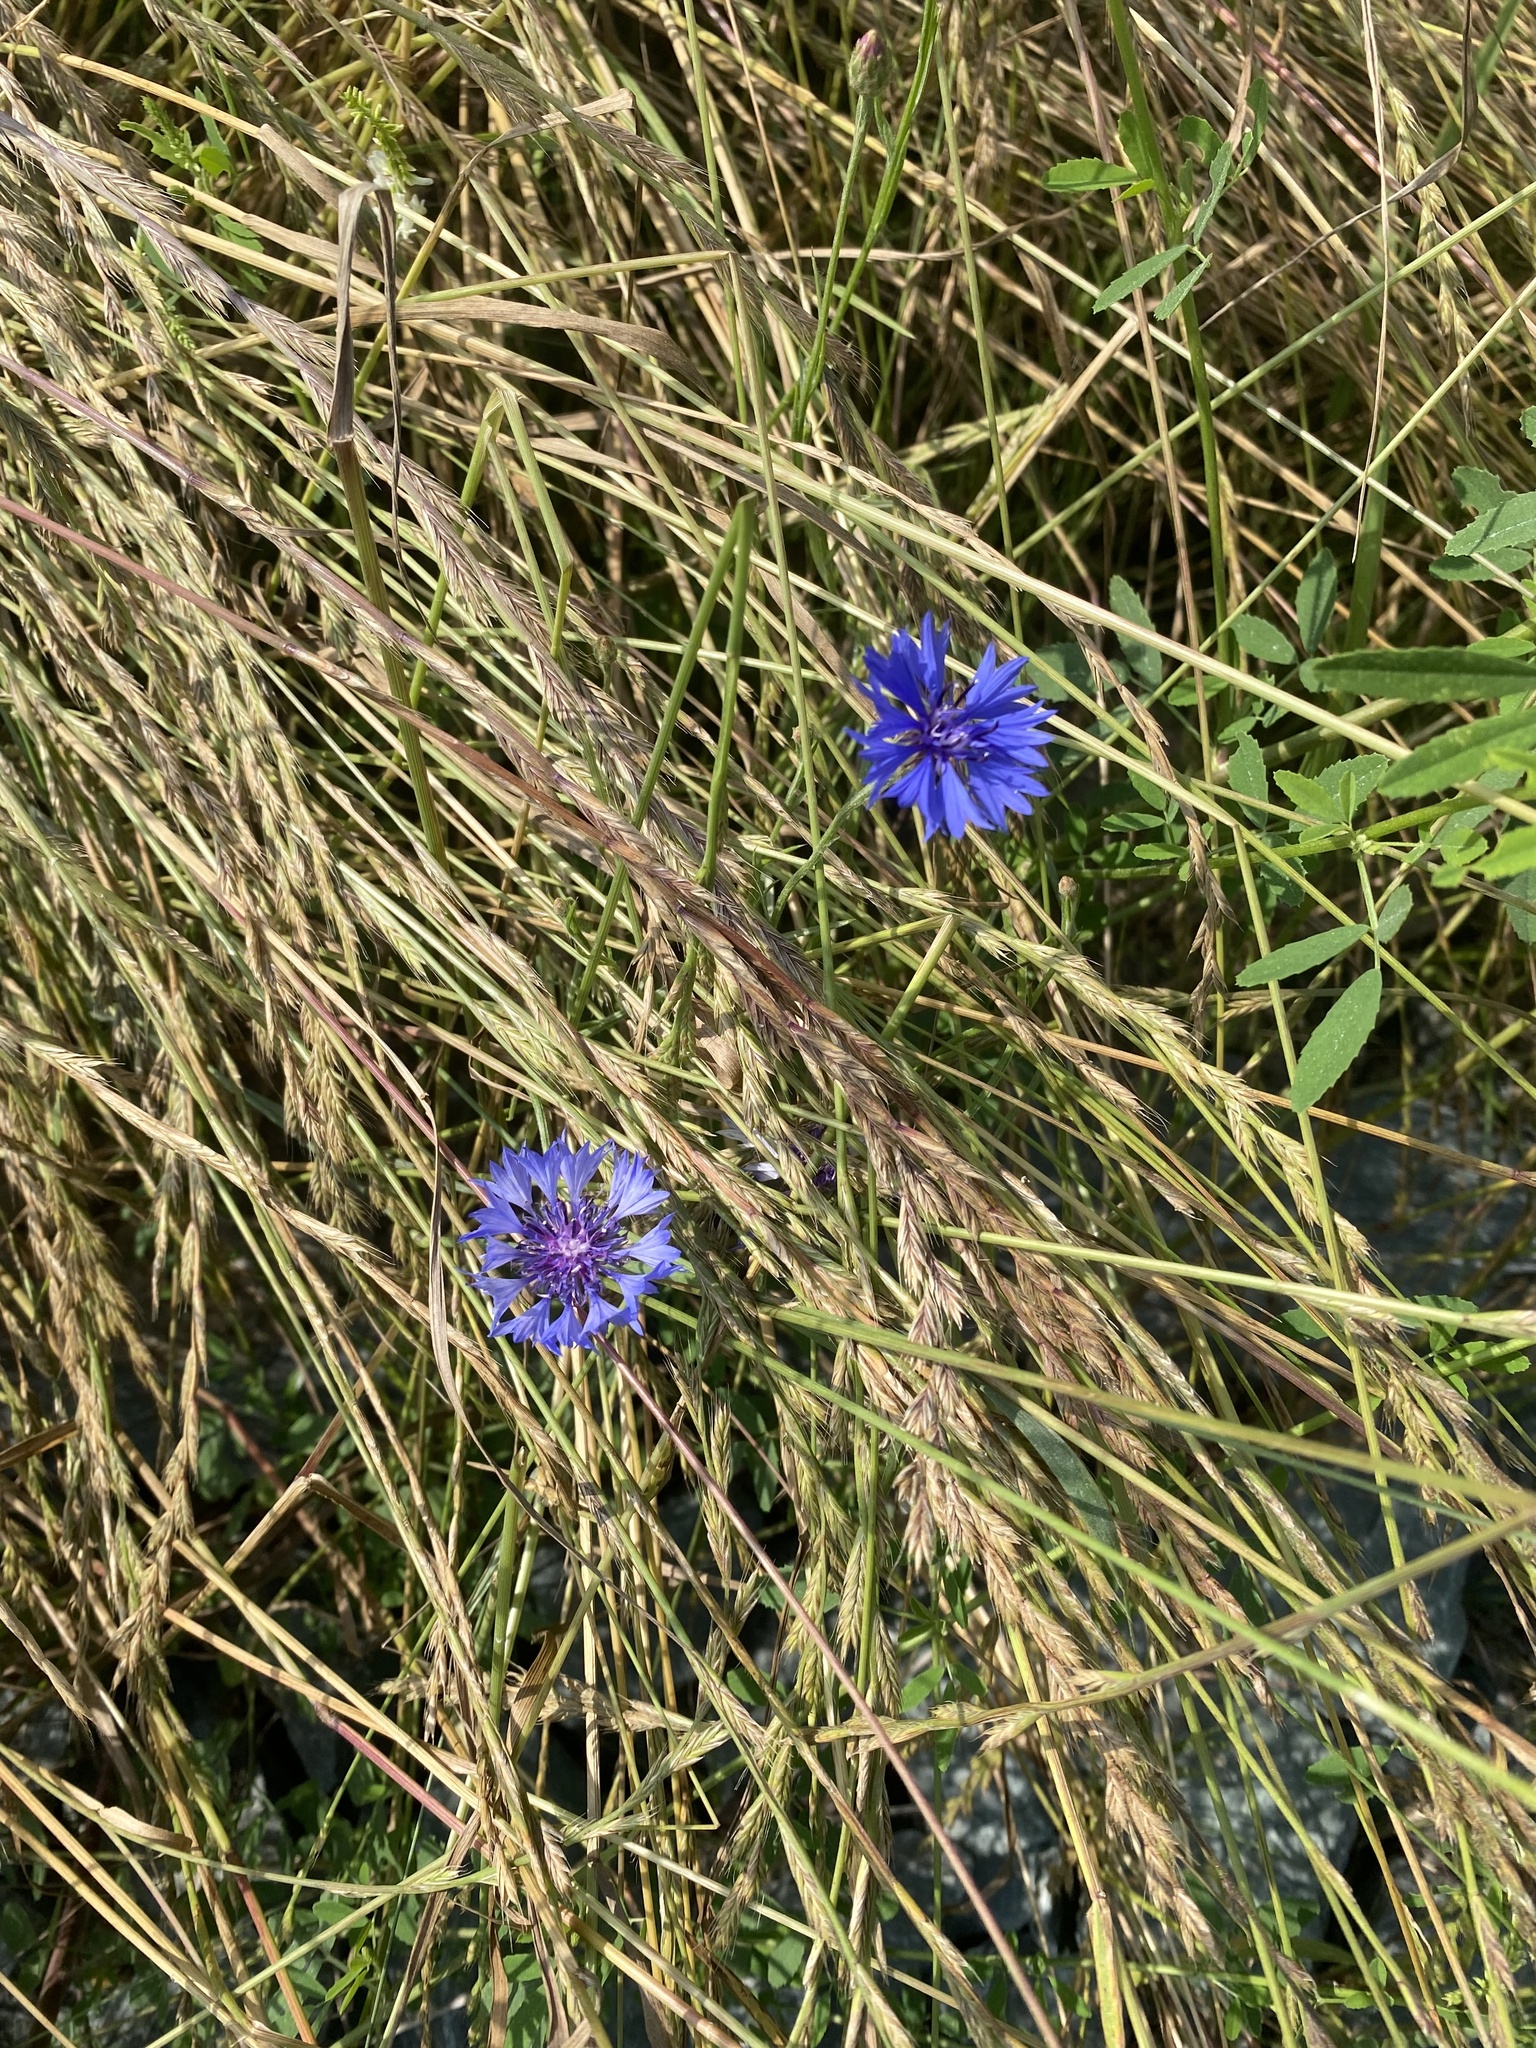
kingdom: Plantae
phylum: Tracheophyta
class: Magnoliopsida
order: Asterales
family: Asteraceae
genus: Centaurea
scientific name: Centaurea cyanus
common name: Cornflower
